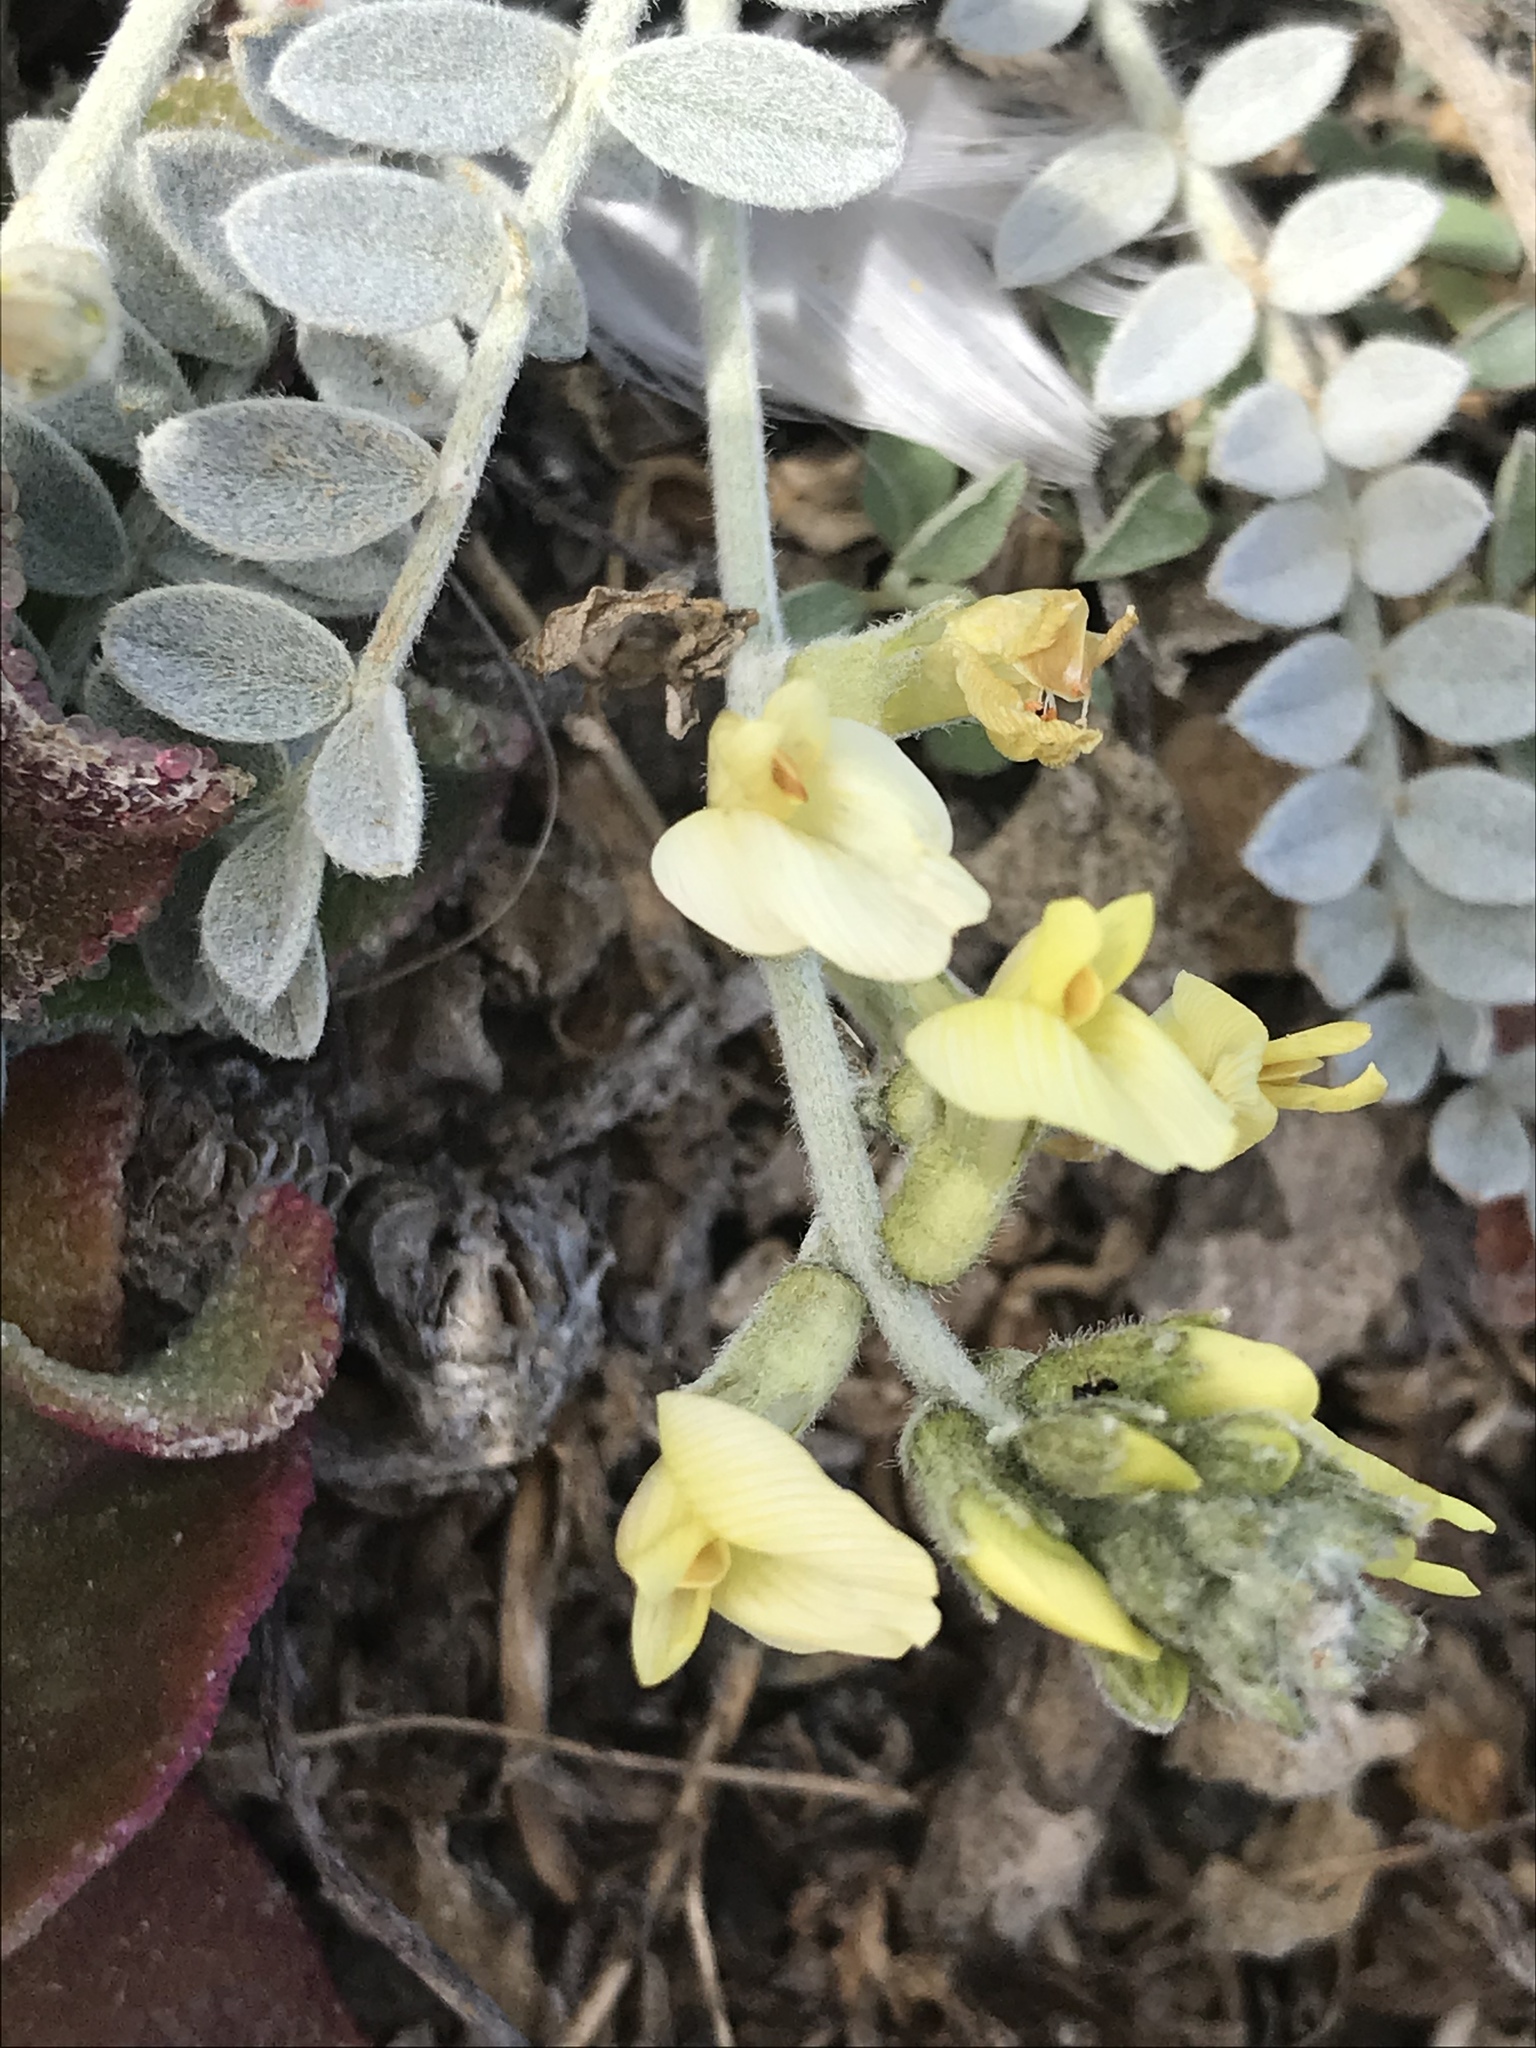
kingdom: Plantae
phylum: Tracheophyta
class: Magnoliopsida
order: Fabales
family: Fabaceae
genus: Astragalus
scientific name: Astragalus traskiae
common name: Trask's milk-vetch
